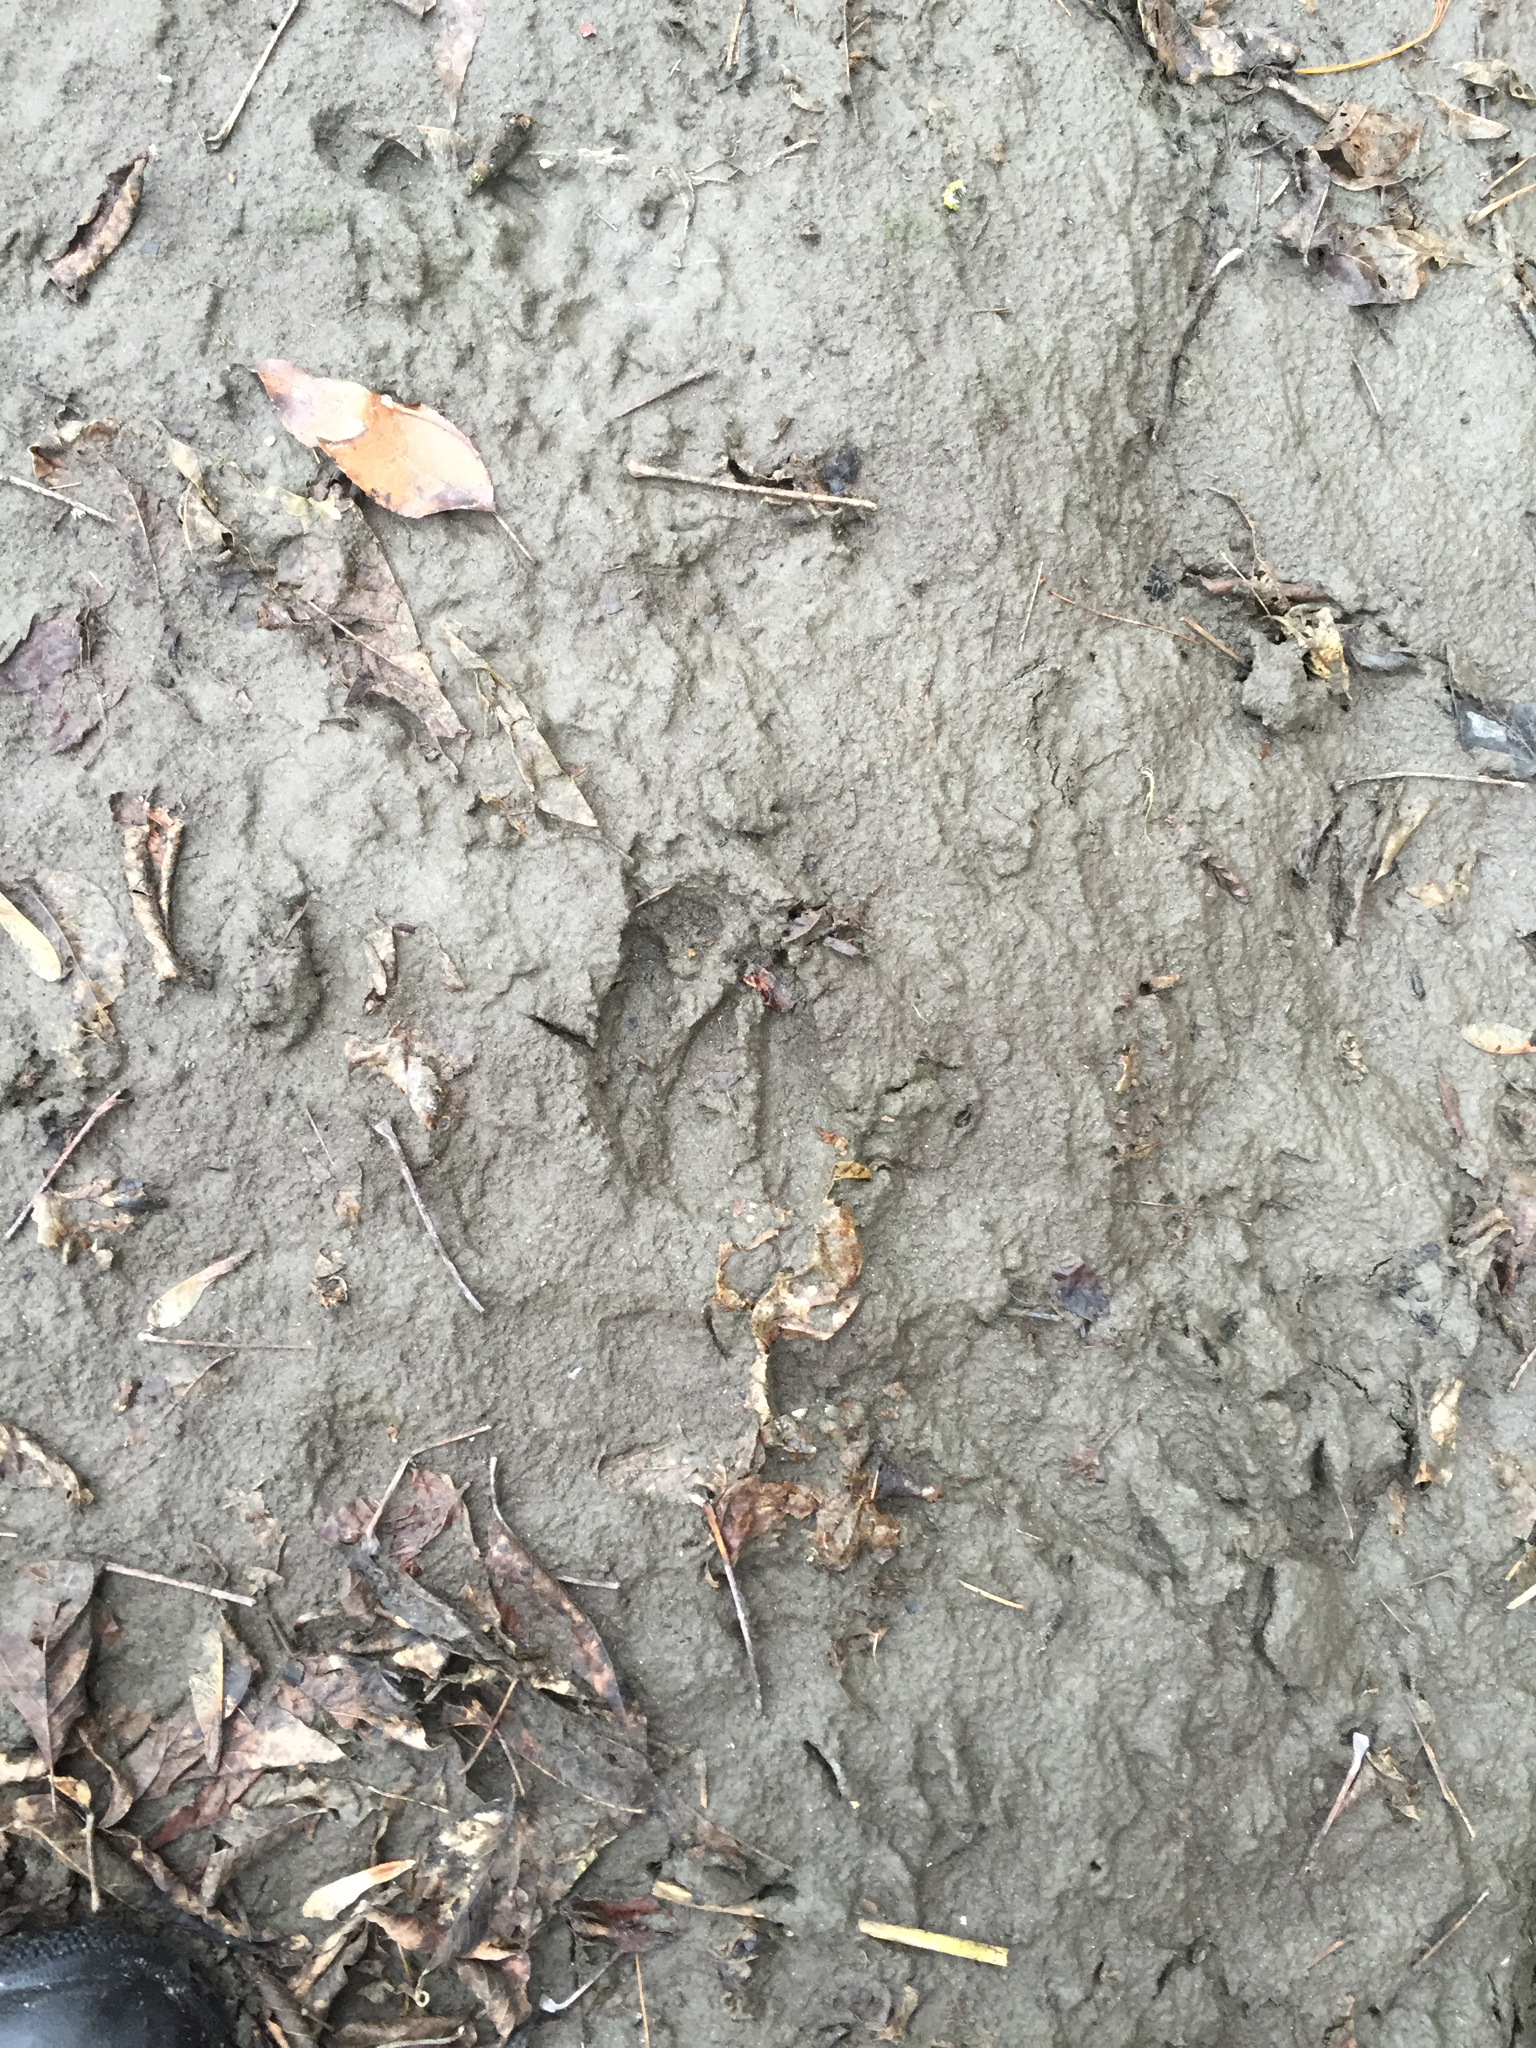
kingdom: Animalia
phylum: Chordata
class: Mammalia
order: Artiodactyla
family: Cervidae
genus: Odocoileus
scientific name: Odocoileus virginianus
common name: White-tailed deer
